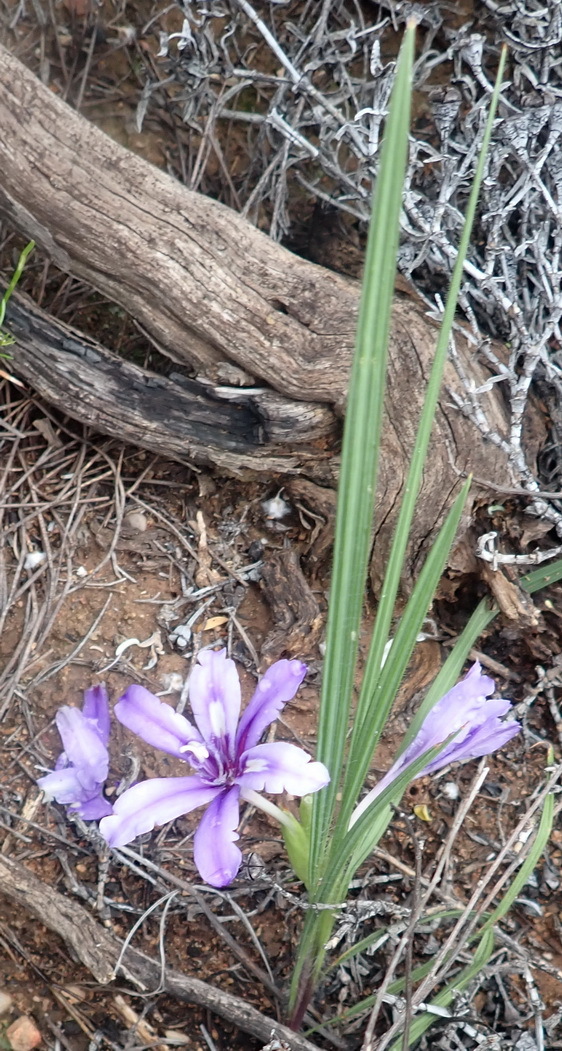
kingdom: Plantae
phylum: Tracheophyta
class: Liliopsida
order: Asparagales
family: Iridaceae
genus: Babiana
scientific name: Babiana sambucina
